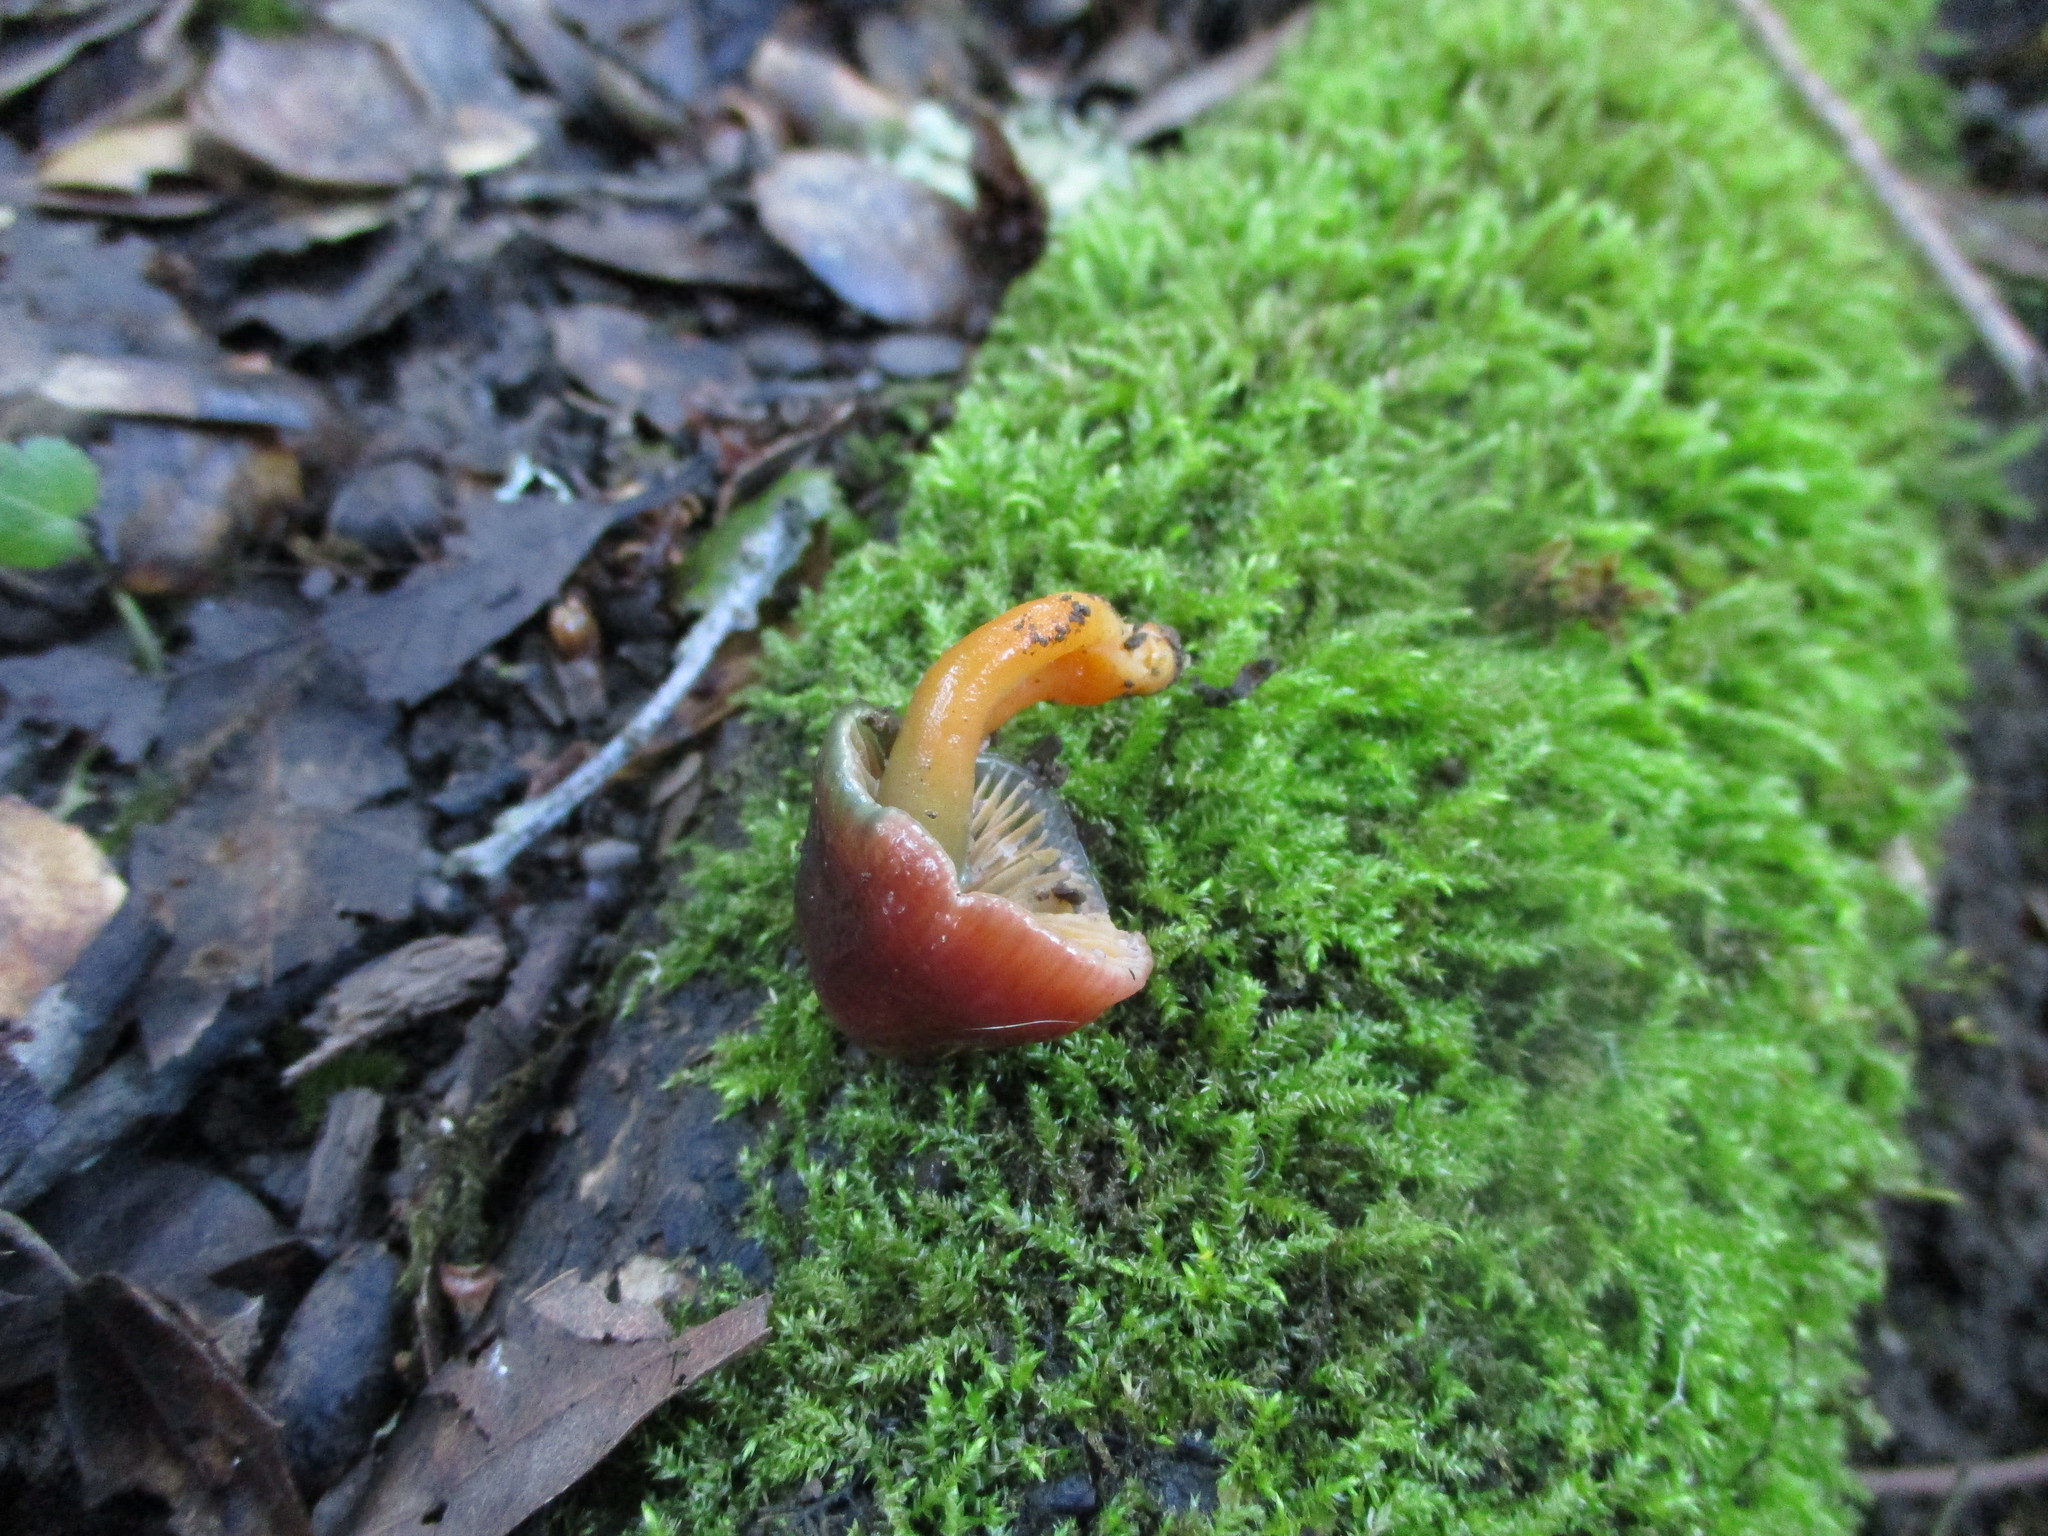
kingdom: Fungi
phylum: Basidiomycota
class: Agaricomycetes
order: Agaricales
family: Hygrophoraceae
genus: Gliophorus
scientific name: Gliophorus psittacinus
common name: Parrot wax-cap
